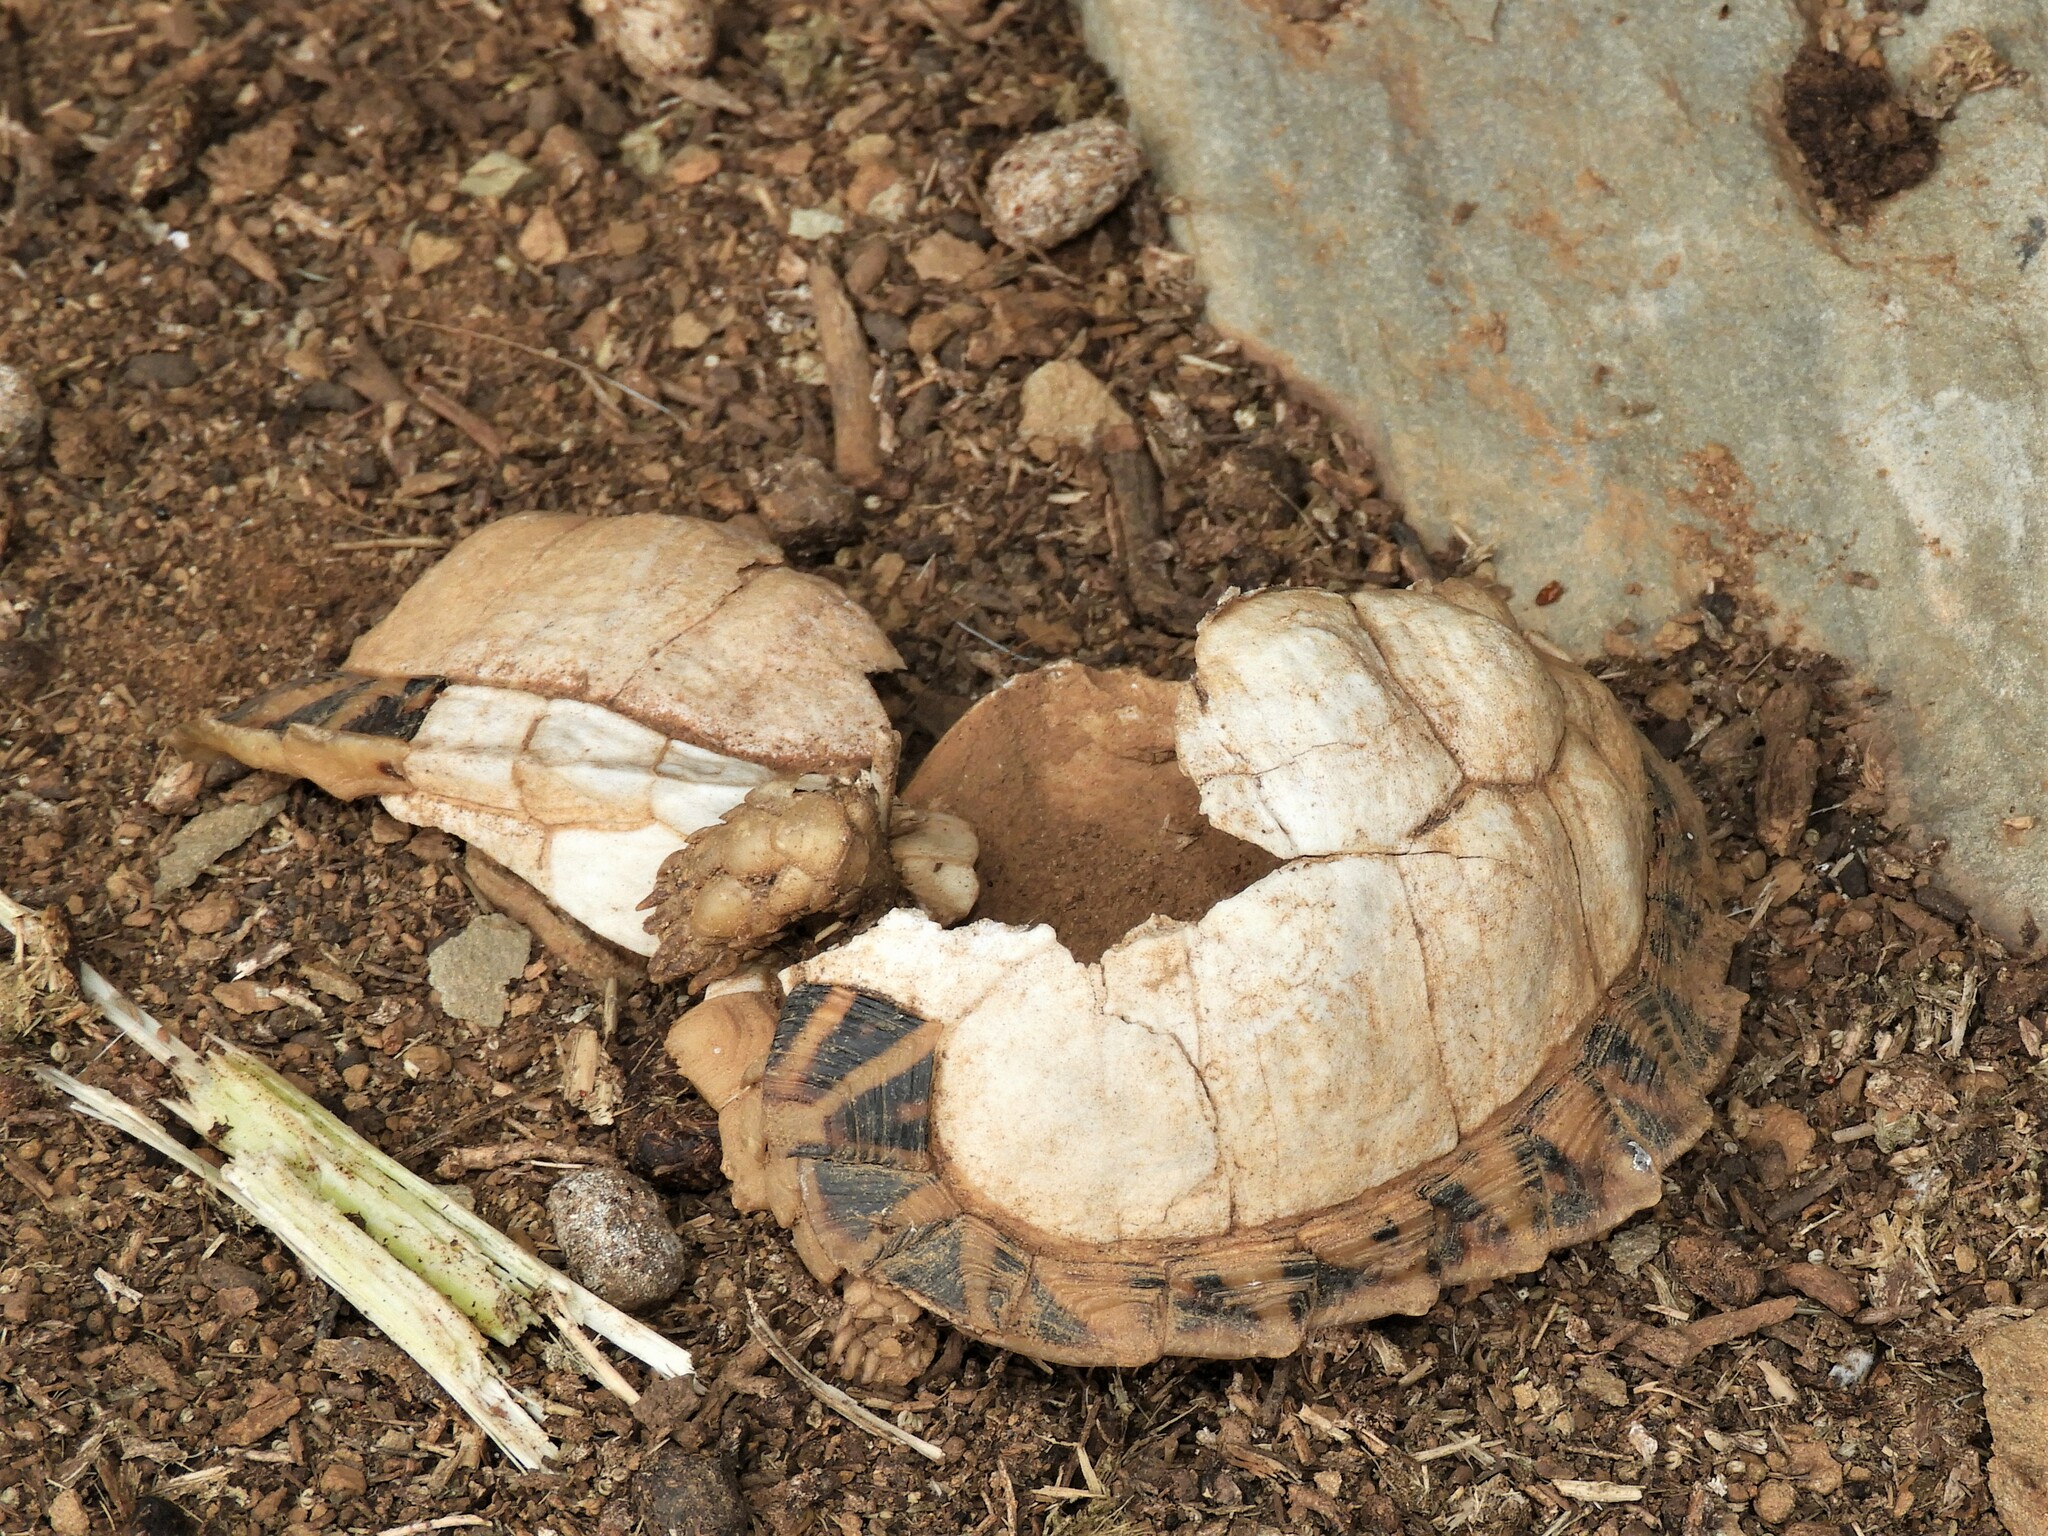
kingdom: Animalia
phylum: Chordata
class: Testudines
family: Testudinidae
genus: Psammobates
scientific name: Psammobates tentorius
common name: Tent tortoise
